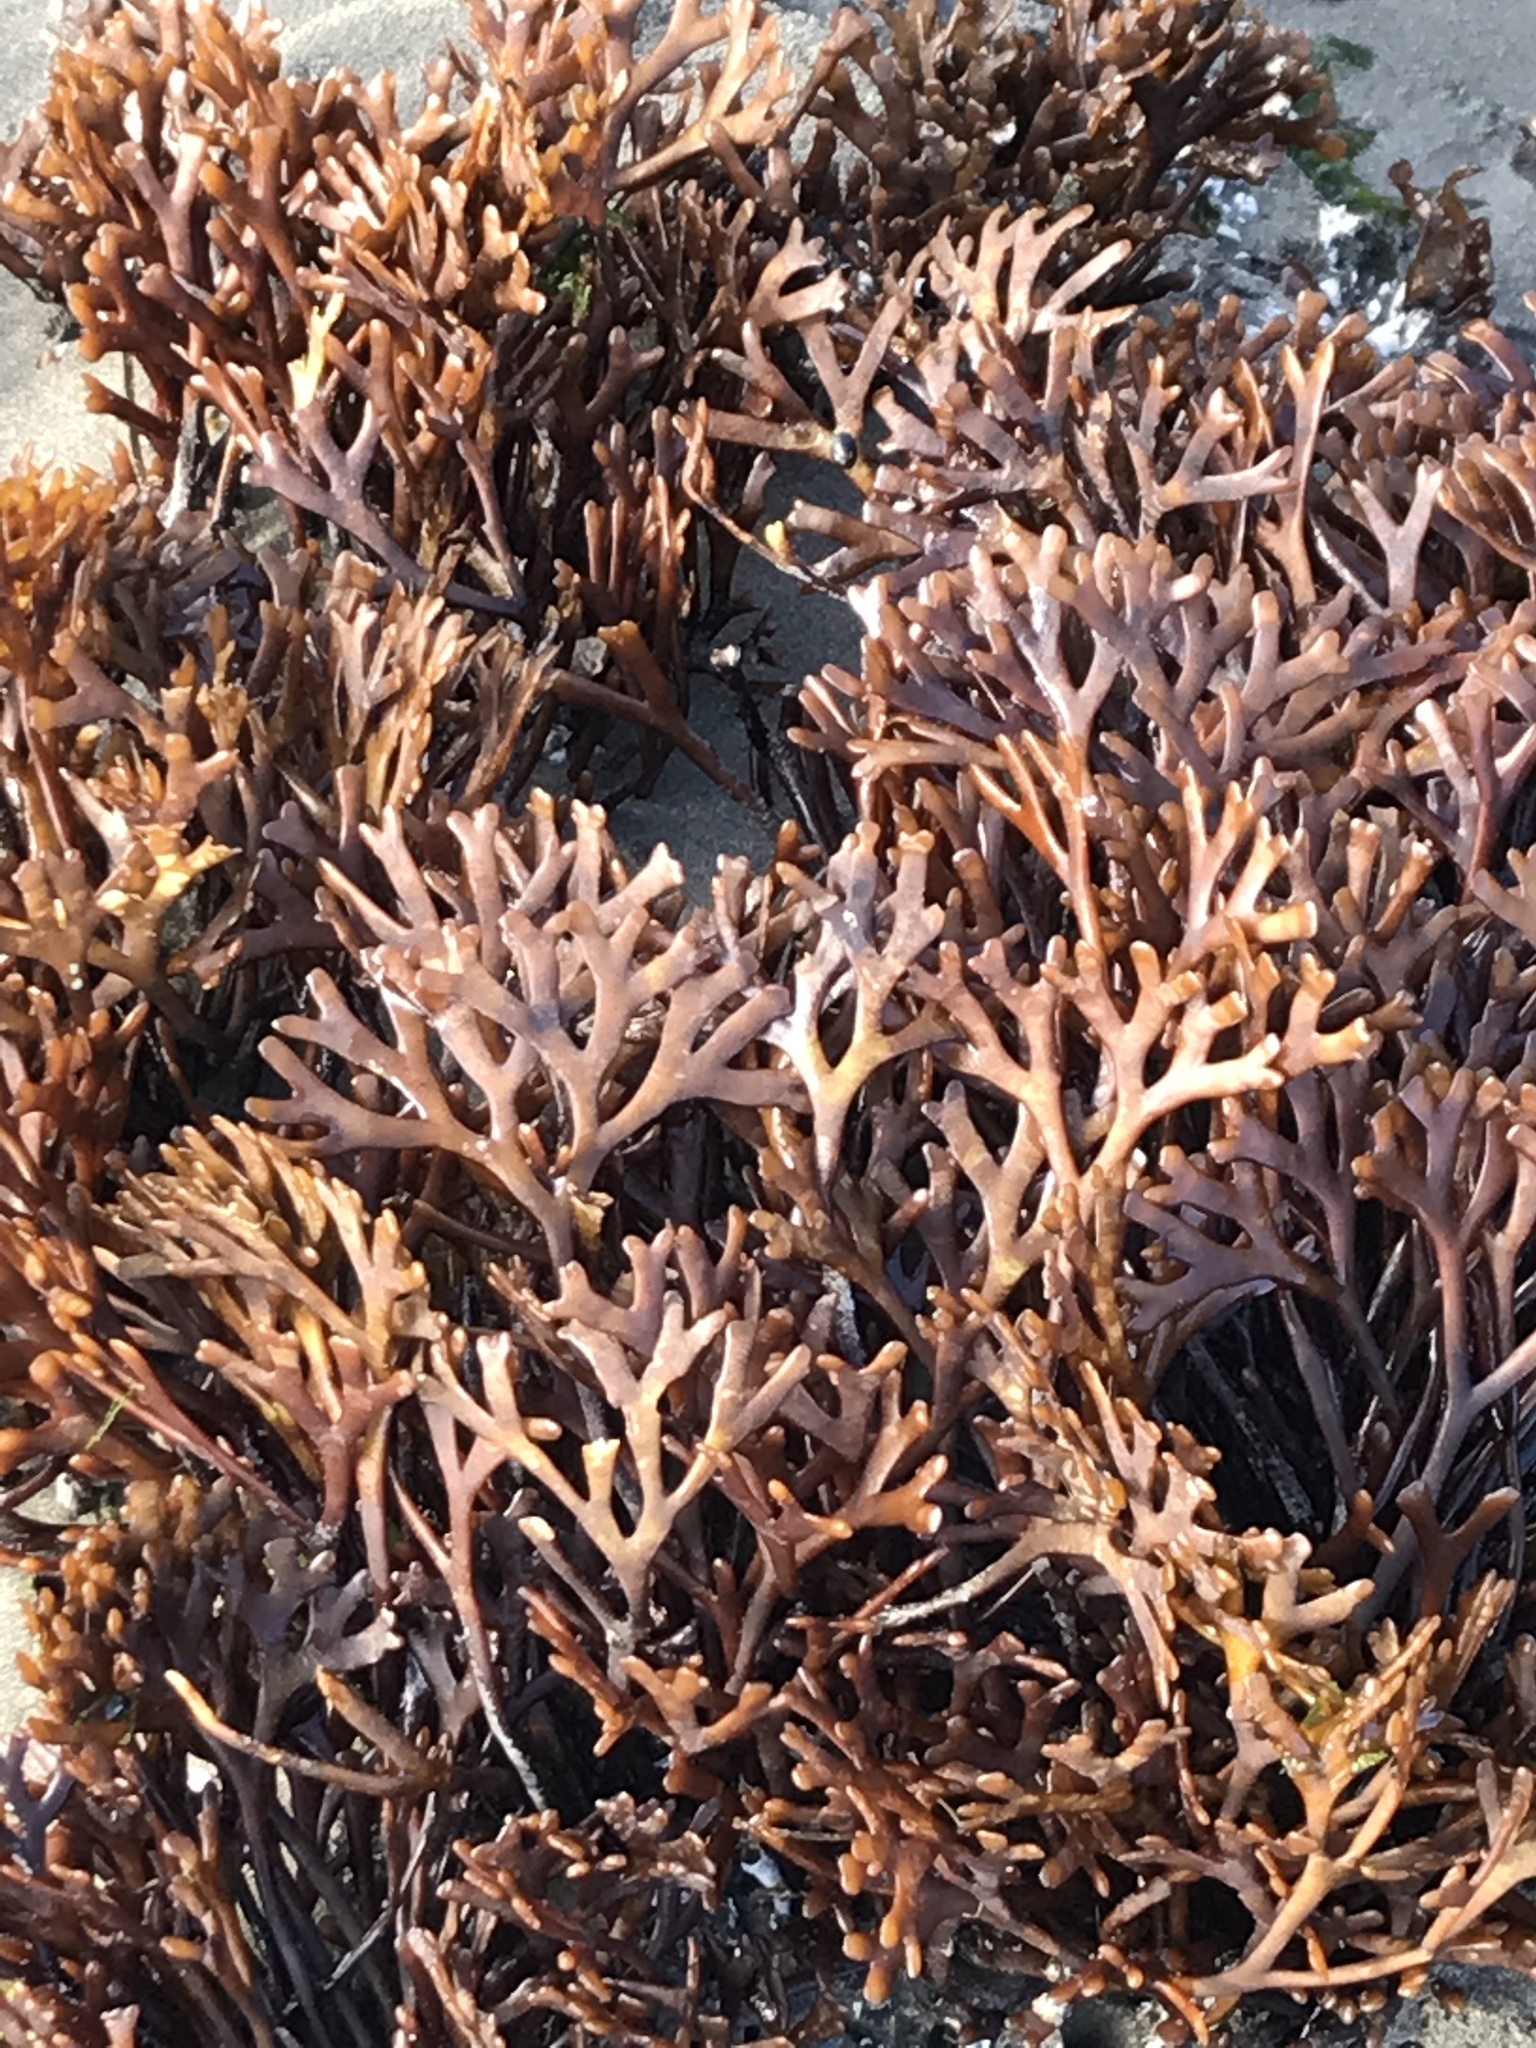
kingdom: Plantae
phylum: Rhodophyta
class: Florideophyceae
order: Gigartinales
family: Phyllophoraceae
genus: Ahnfeltiopsis
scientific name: Ahnfeltiopsis linearis
